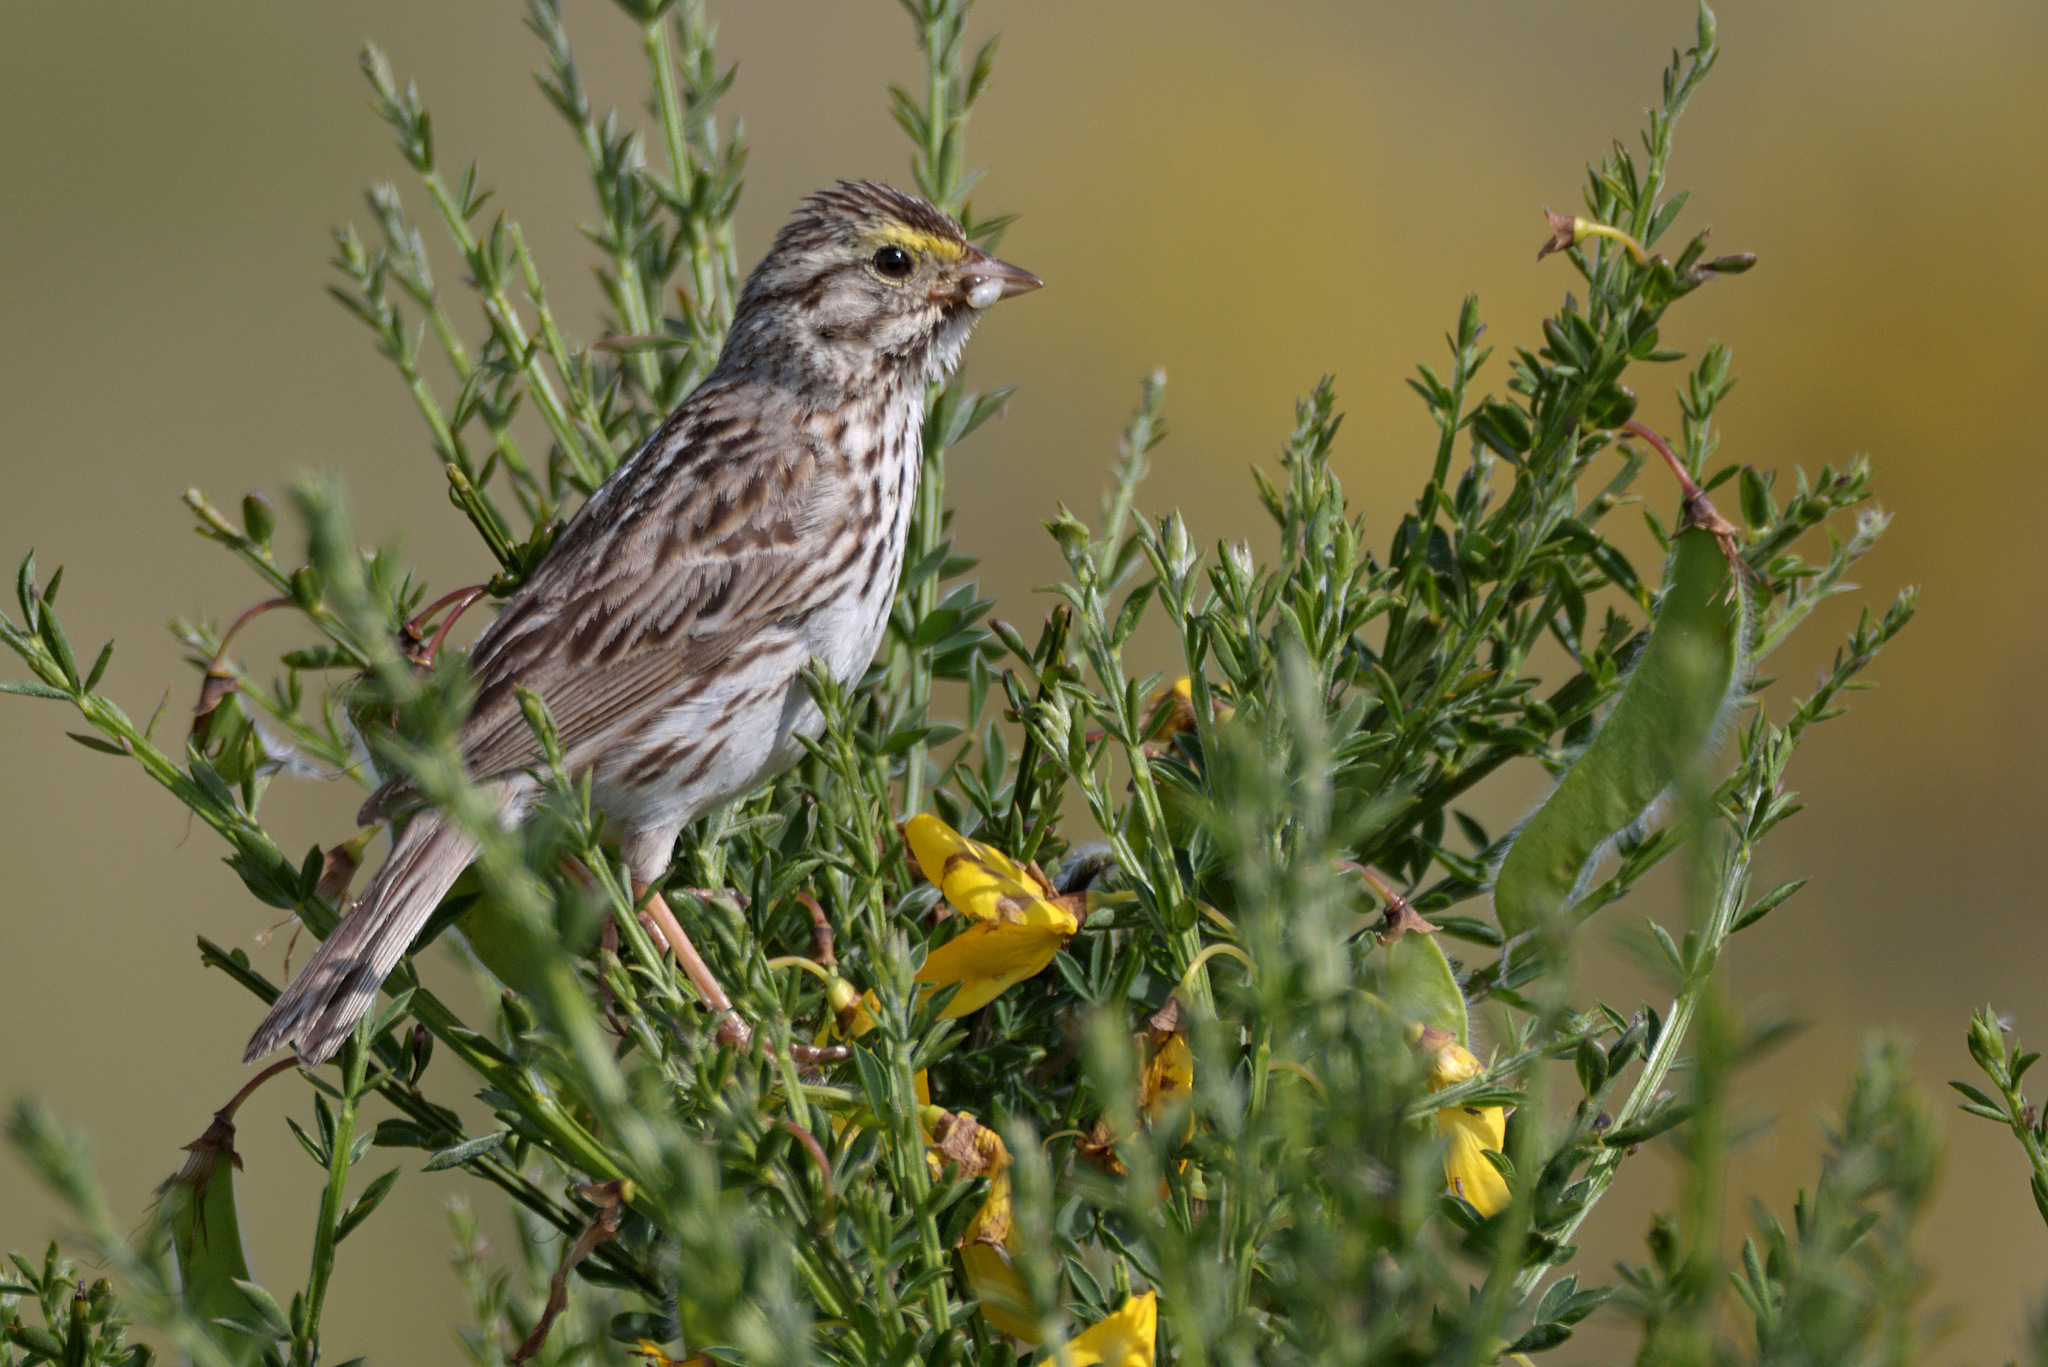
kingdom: Animalia
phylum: Chordata
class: Aves
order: Passeriformes
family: Passerellidae
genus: Passerculus
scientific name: Passerculus sandwichensis
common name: Savannah sparrow
